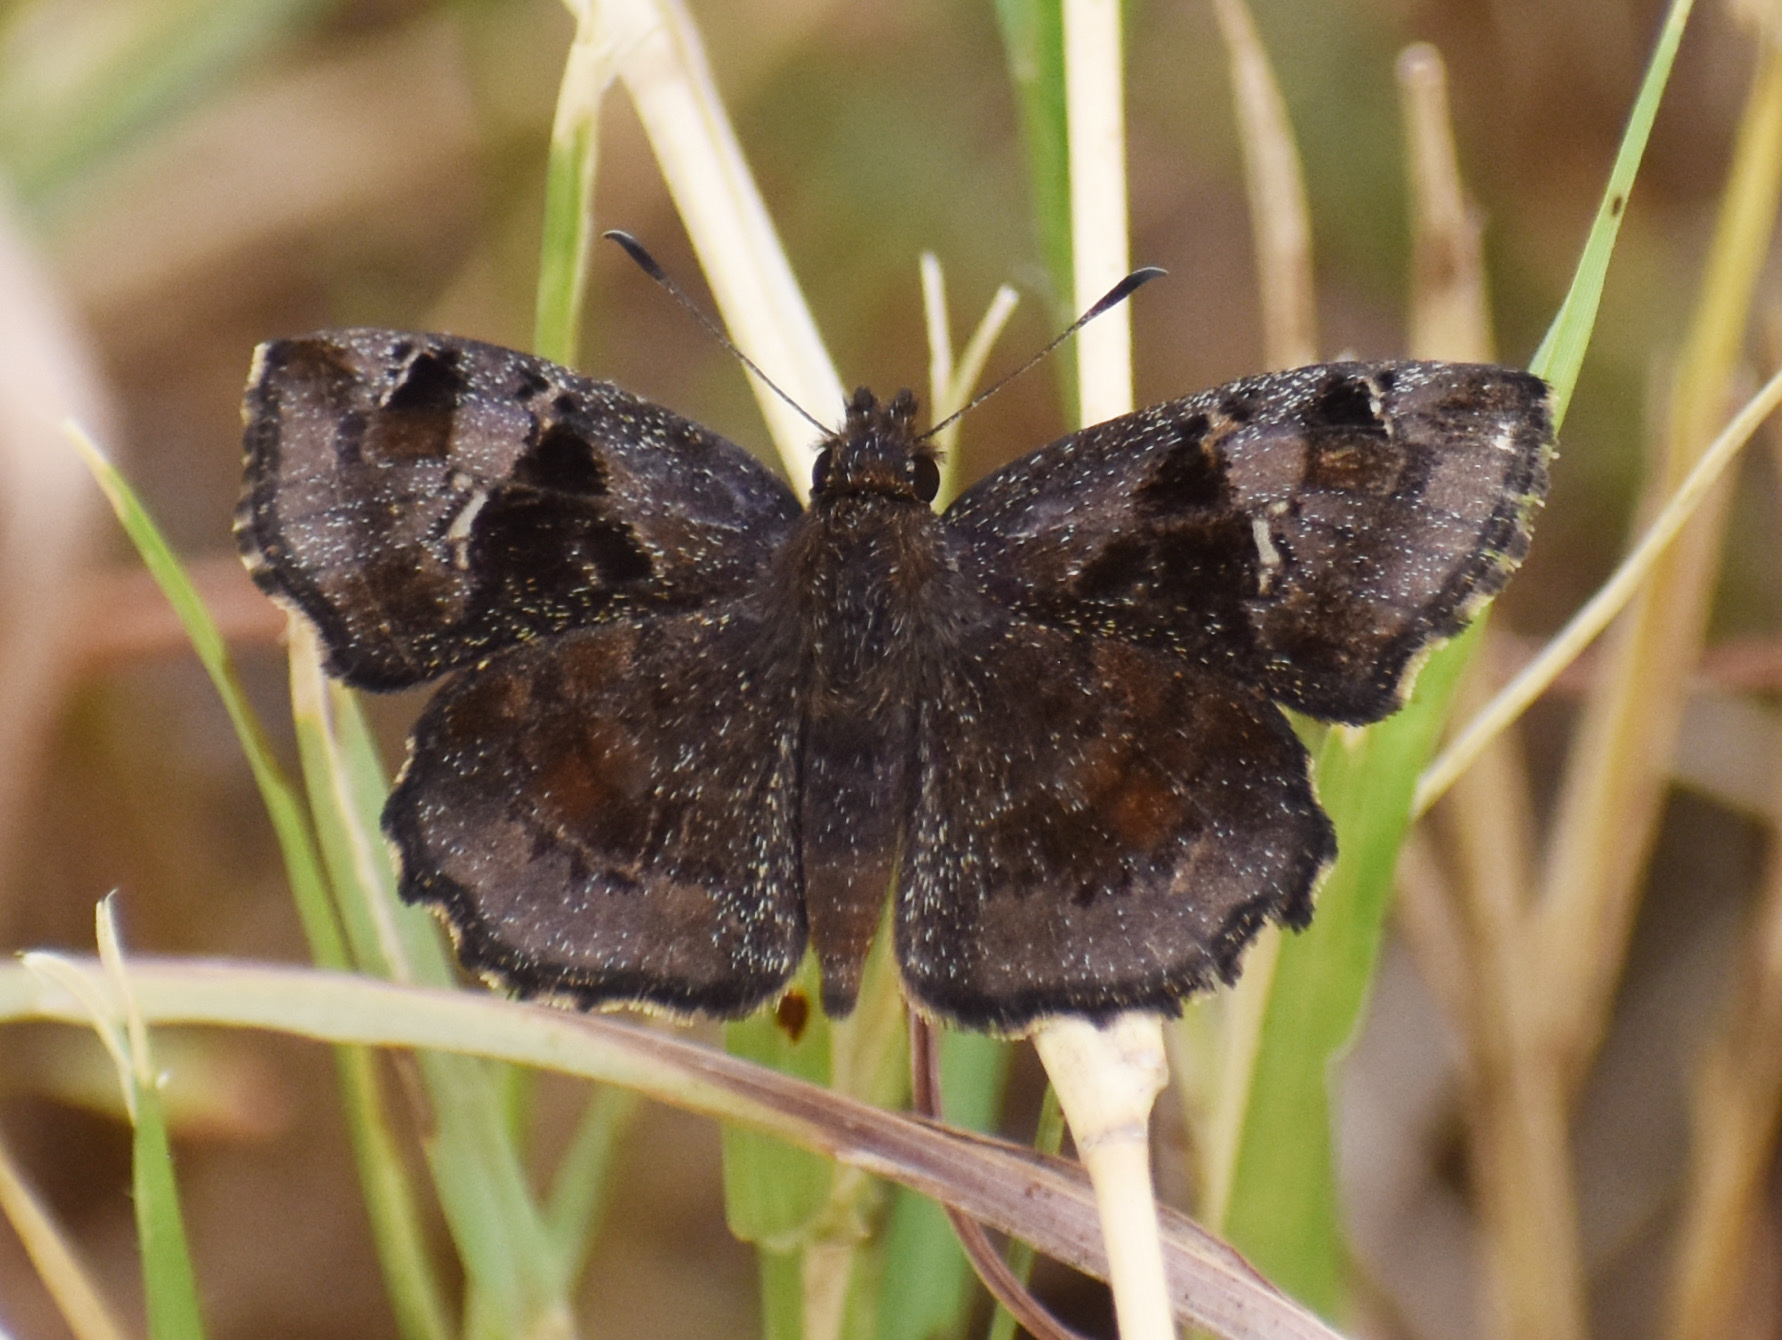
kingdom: Animalia
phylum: Arthropoda
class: Insecta
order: Lepidoptera
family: Hesperiidae
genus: Eretis
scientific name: Eretis umbra
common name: Small marbled elf
